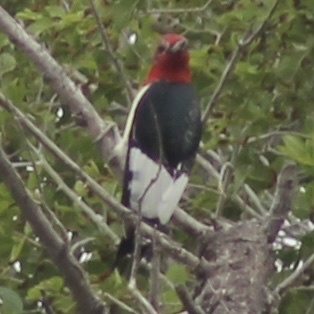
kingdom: Animalia
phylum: Chordata
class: Aves
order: Piciformes
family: Picidae
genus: Melanerpes
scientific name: Melanerpes erythrocephalus
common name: Red-headed woodpecker
